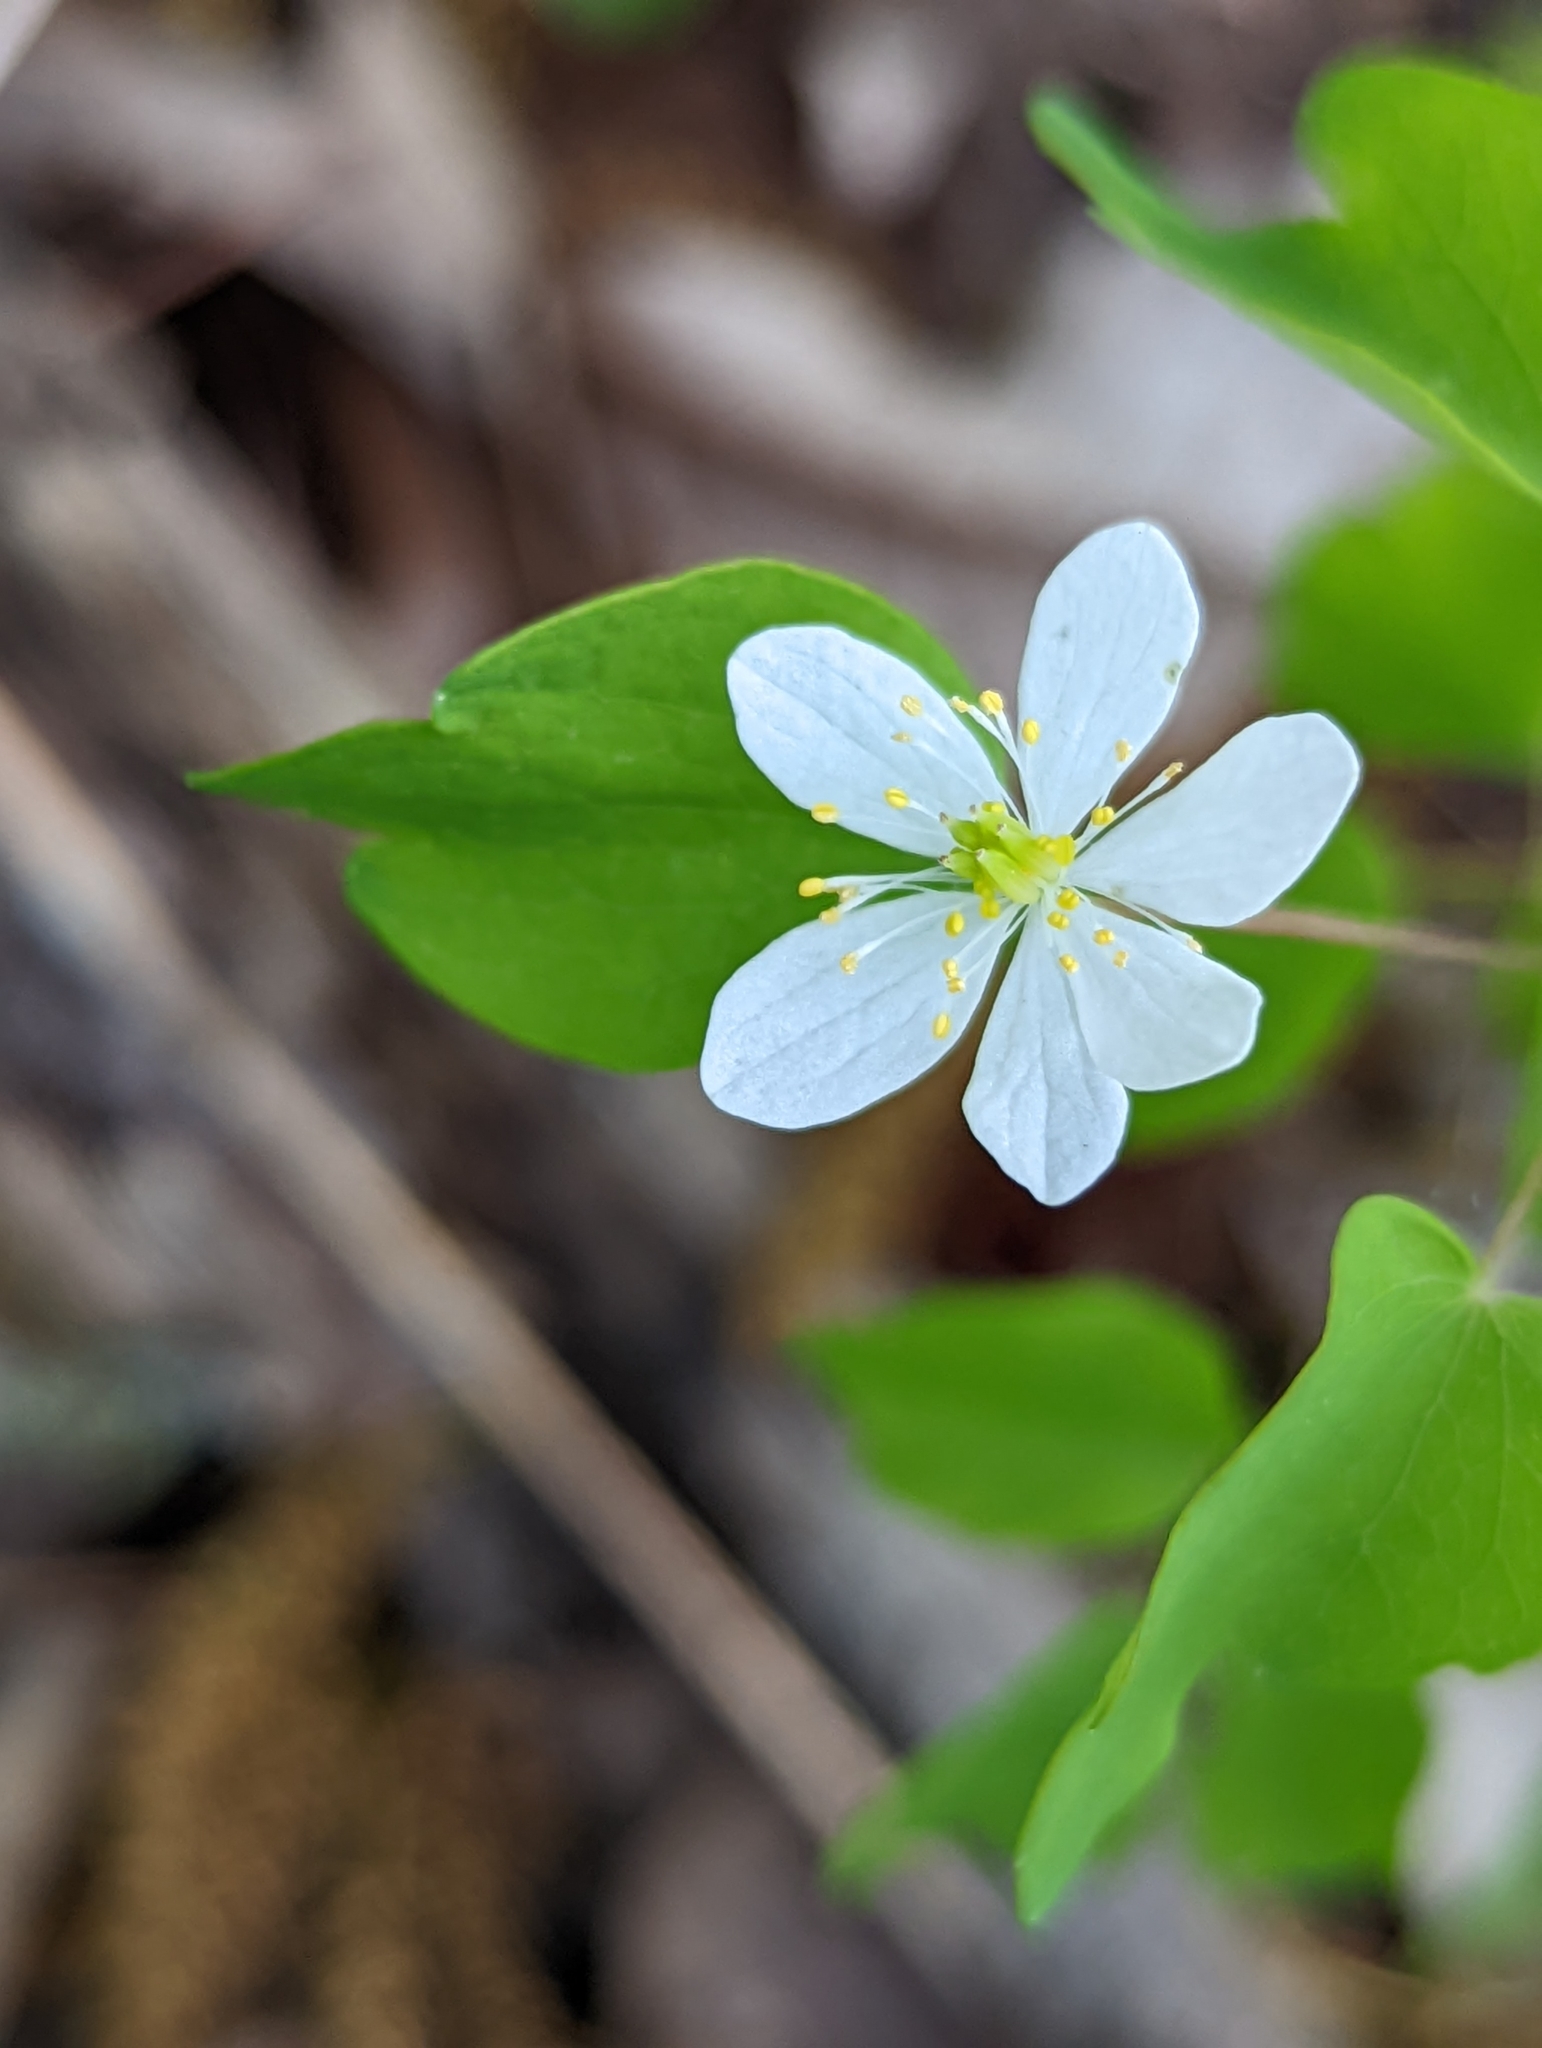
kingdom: Plantae
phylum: Tracheophyta
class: Magnoliopsida
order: Ranunculales
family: Ranunculaceae
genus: Thalictrum
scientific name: Thalictrum thalictroides
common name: Rue-anemone
